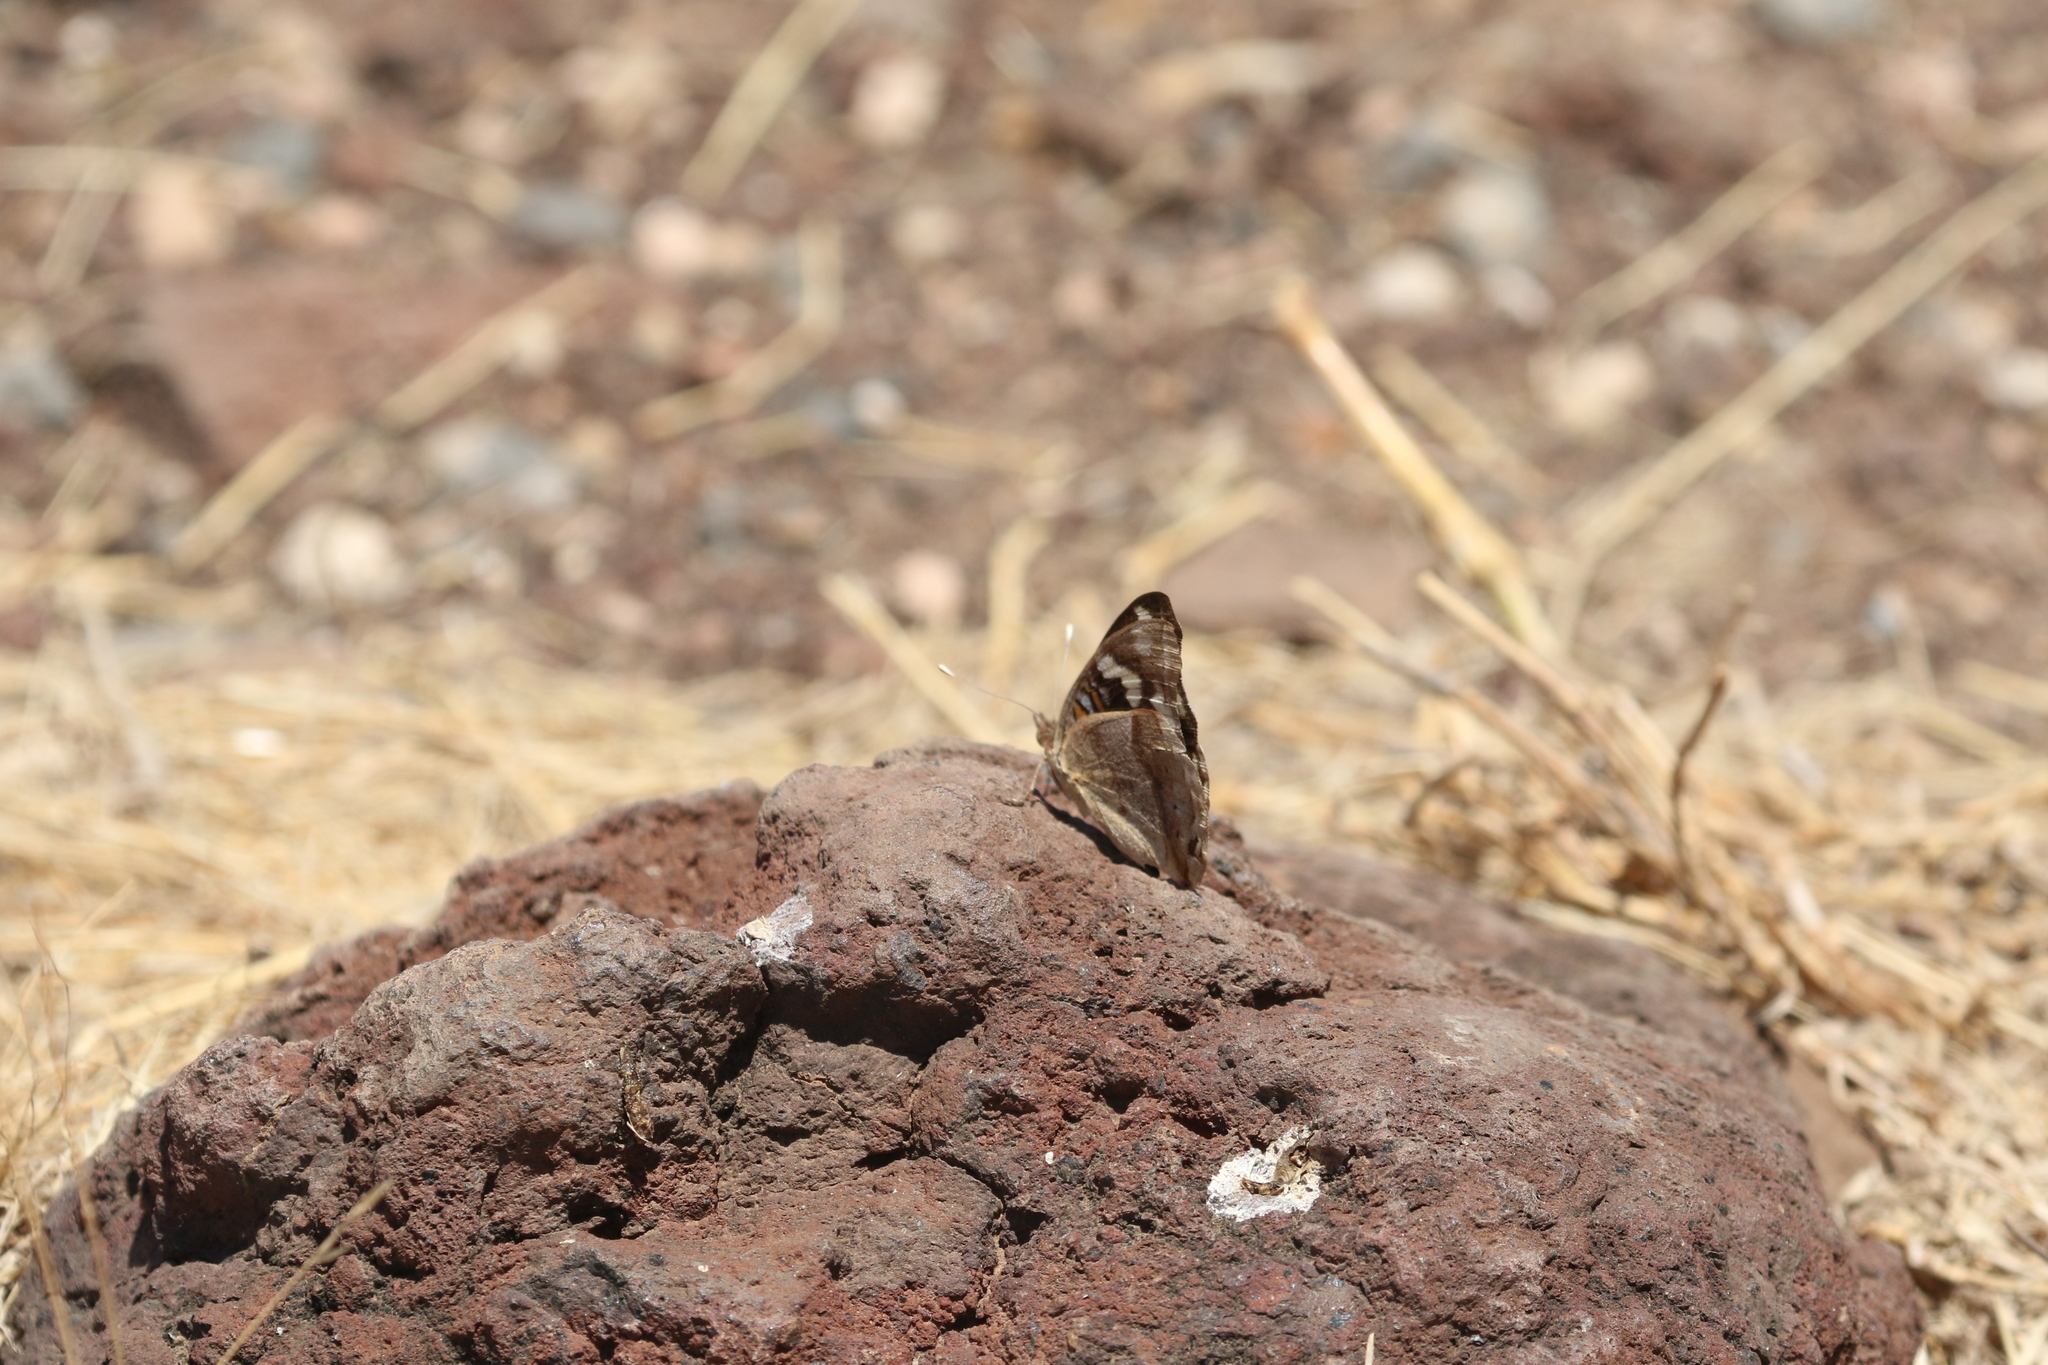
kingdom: Animalia
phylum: Arthropoda
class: Insecta
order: Lepidoptera
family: Nymphalidae
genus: Junonia
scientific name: Junonia oenone
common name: Dark blue pansy
